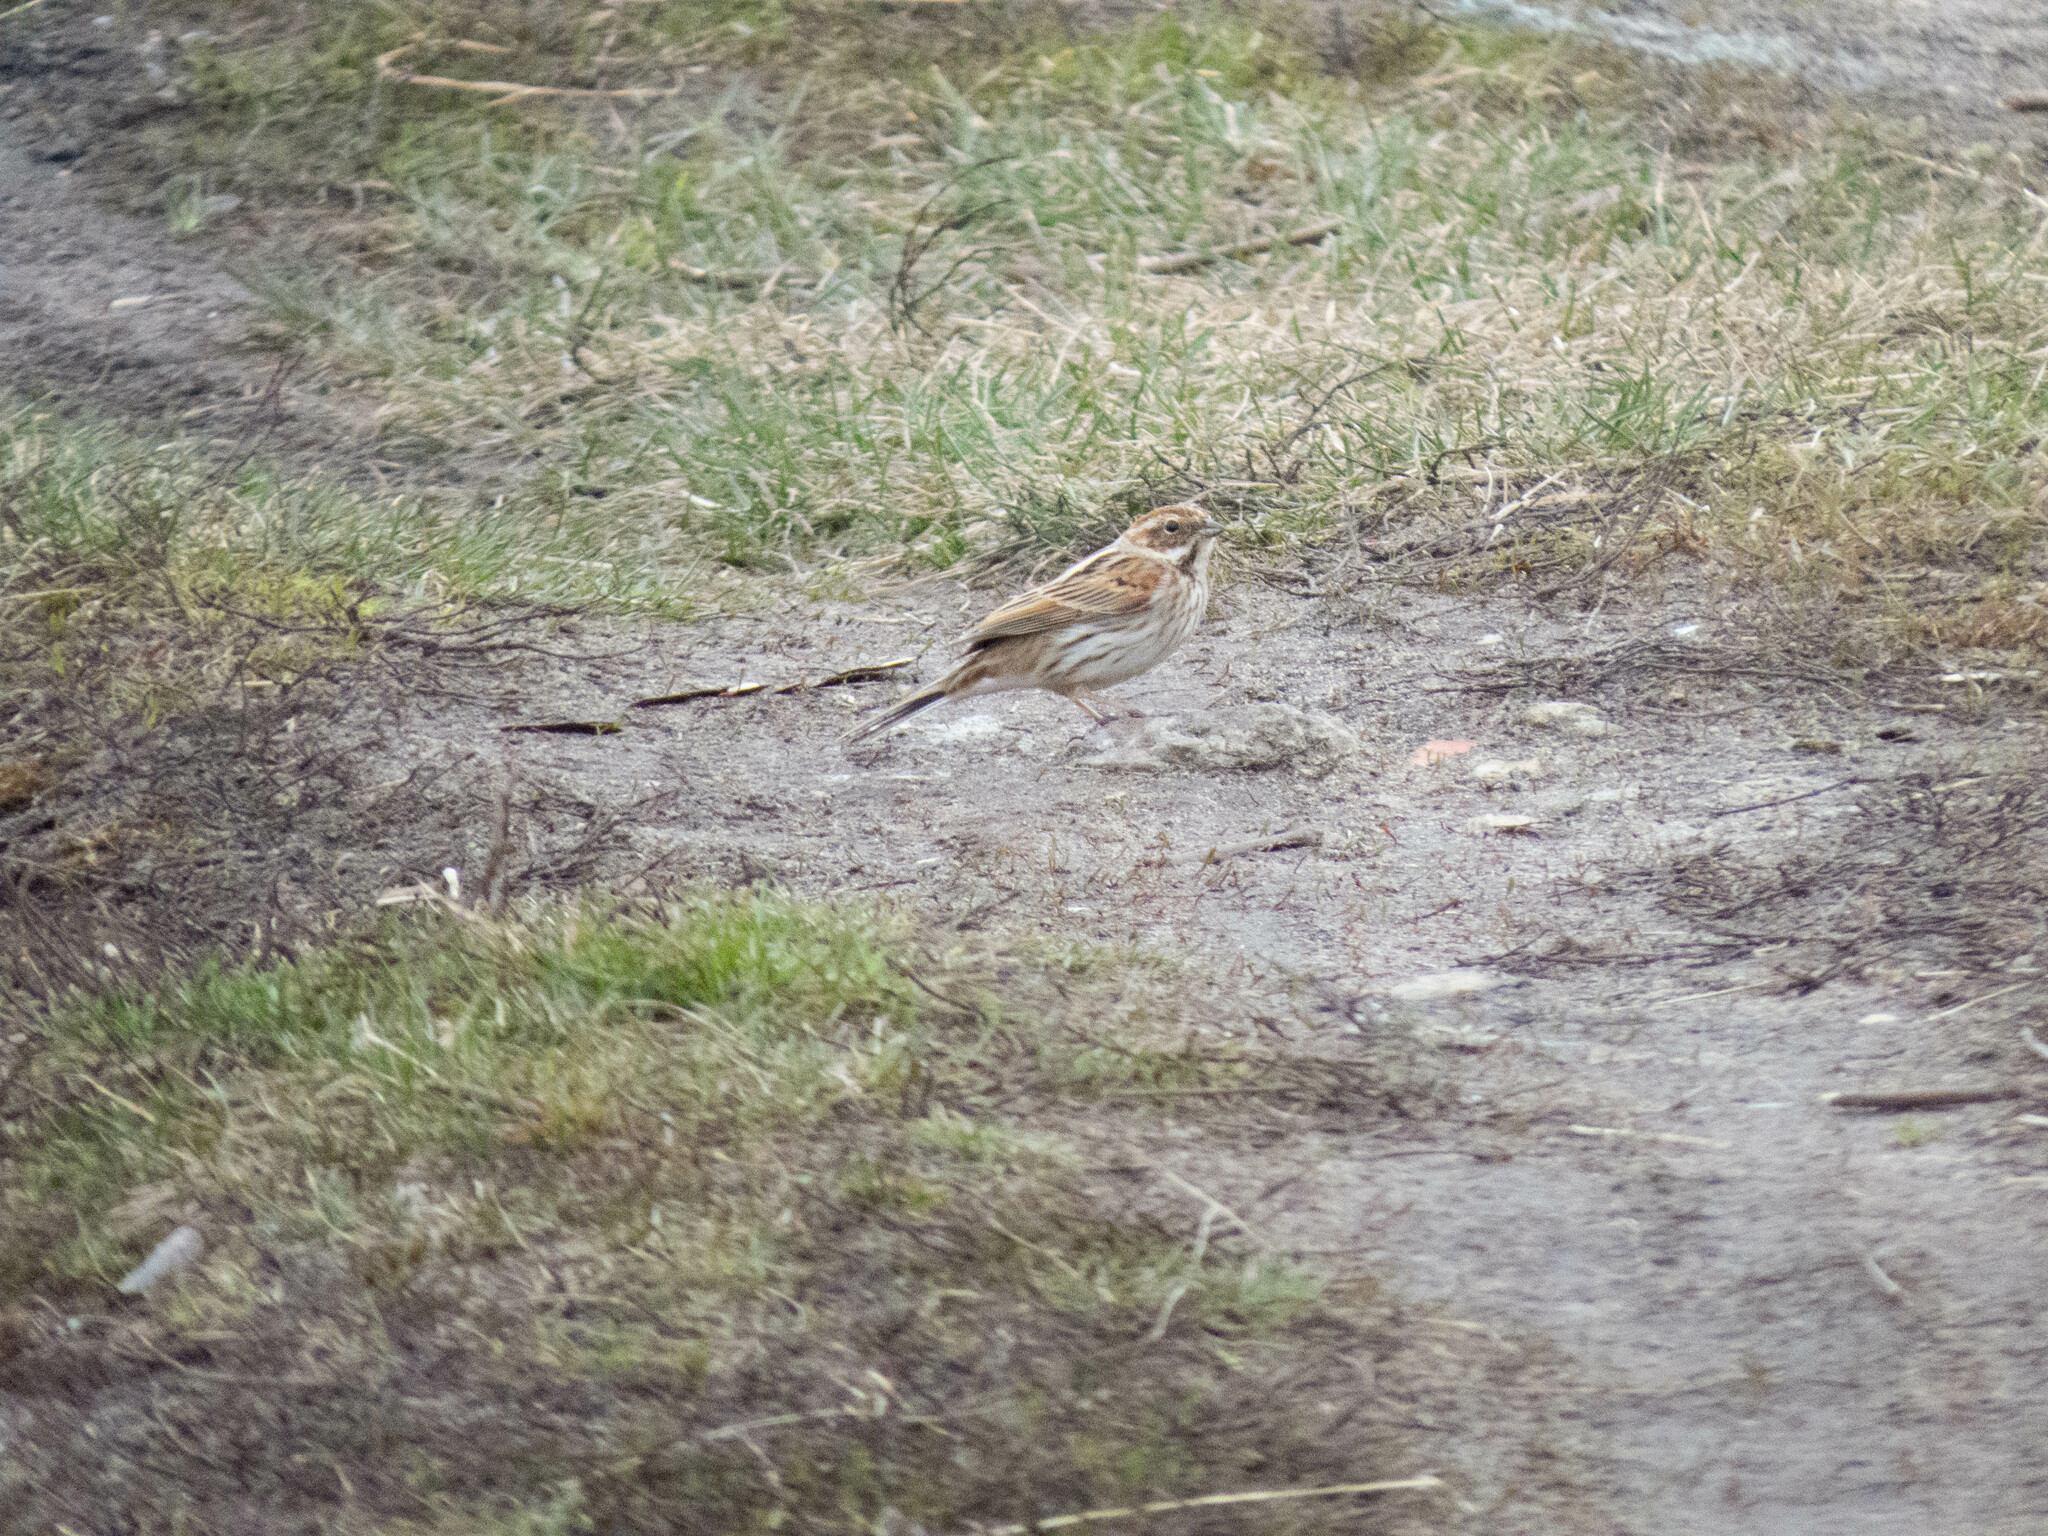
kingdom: Animalia
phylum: Chordata
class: Aves
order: Passeriformes
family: Emberizidae
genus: Emberiza
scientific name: Emberiza schoeniclus
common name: Reed bunting
